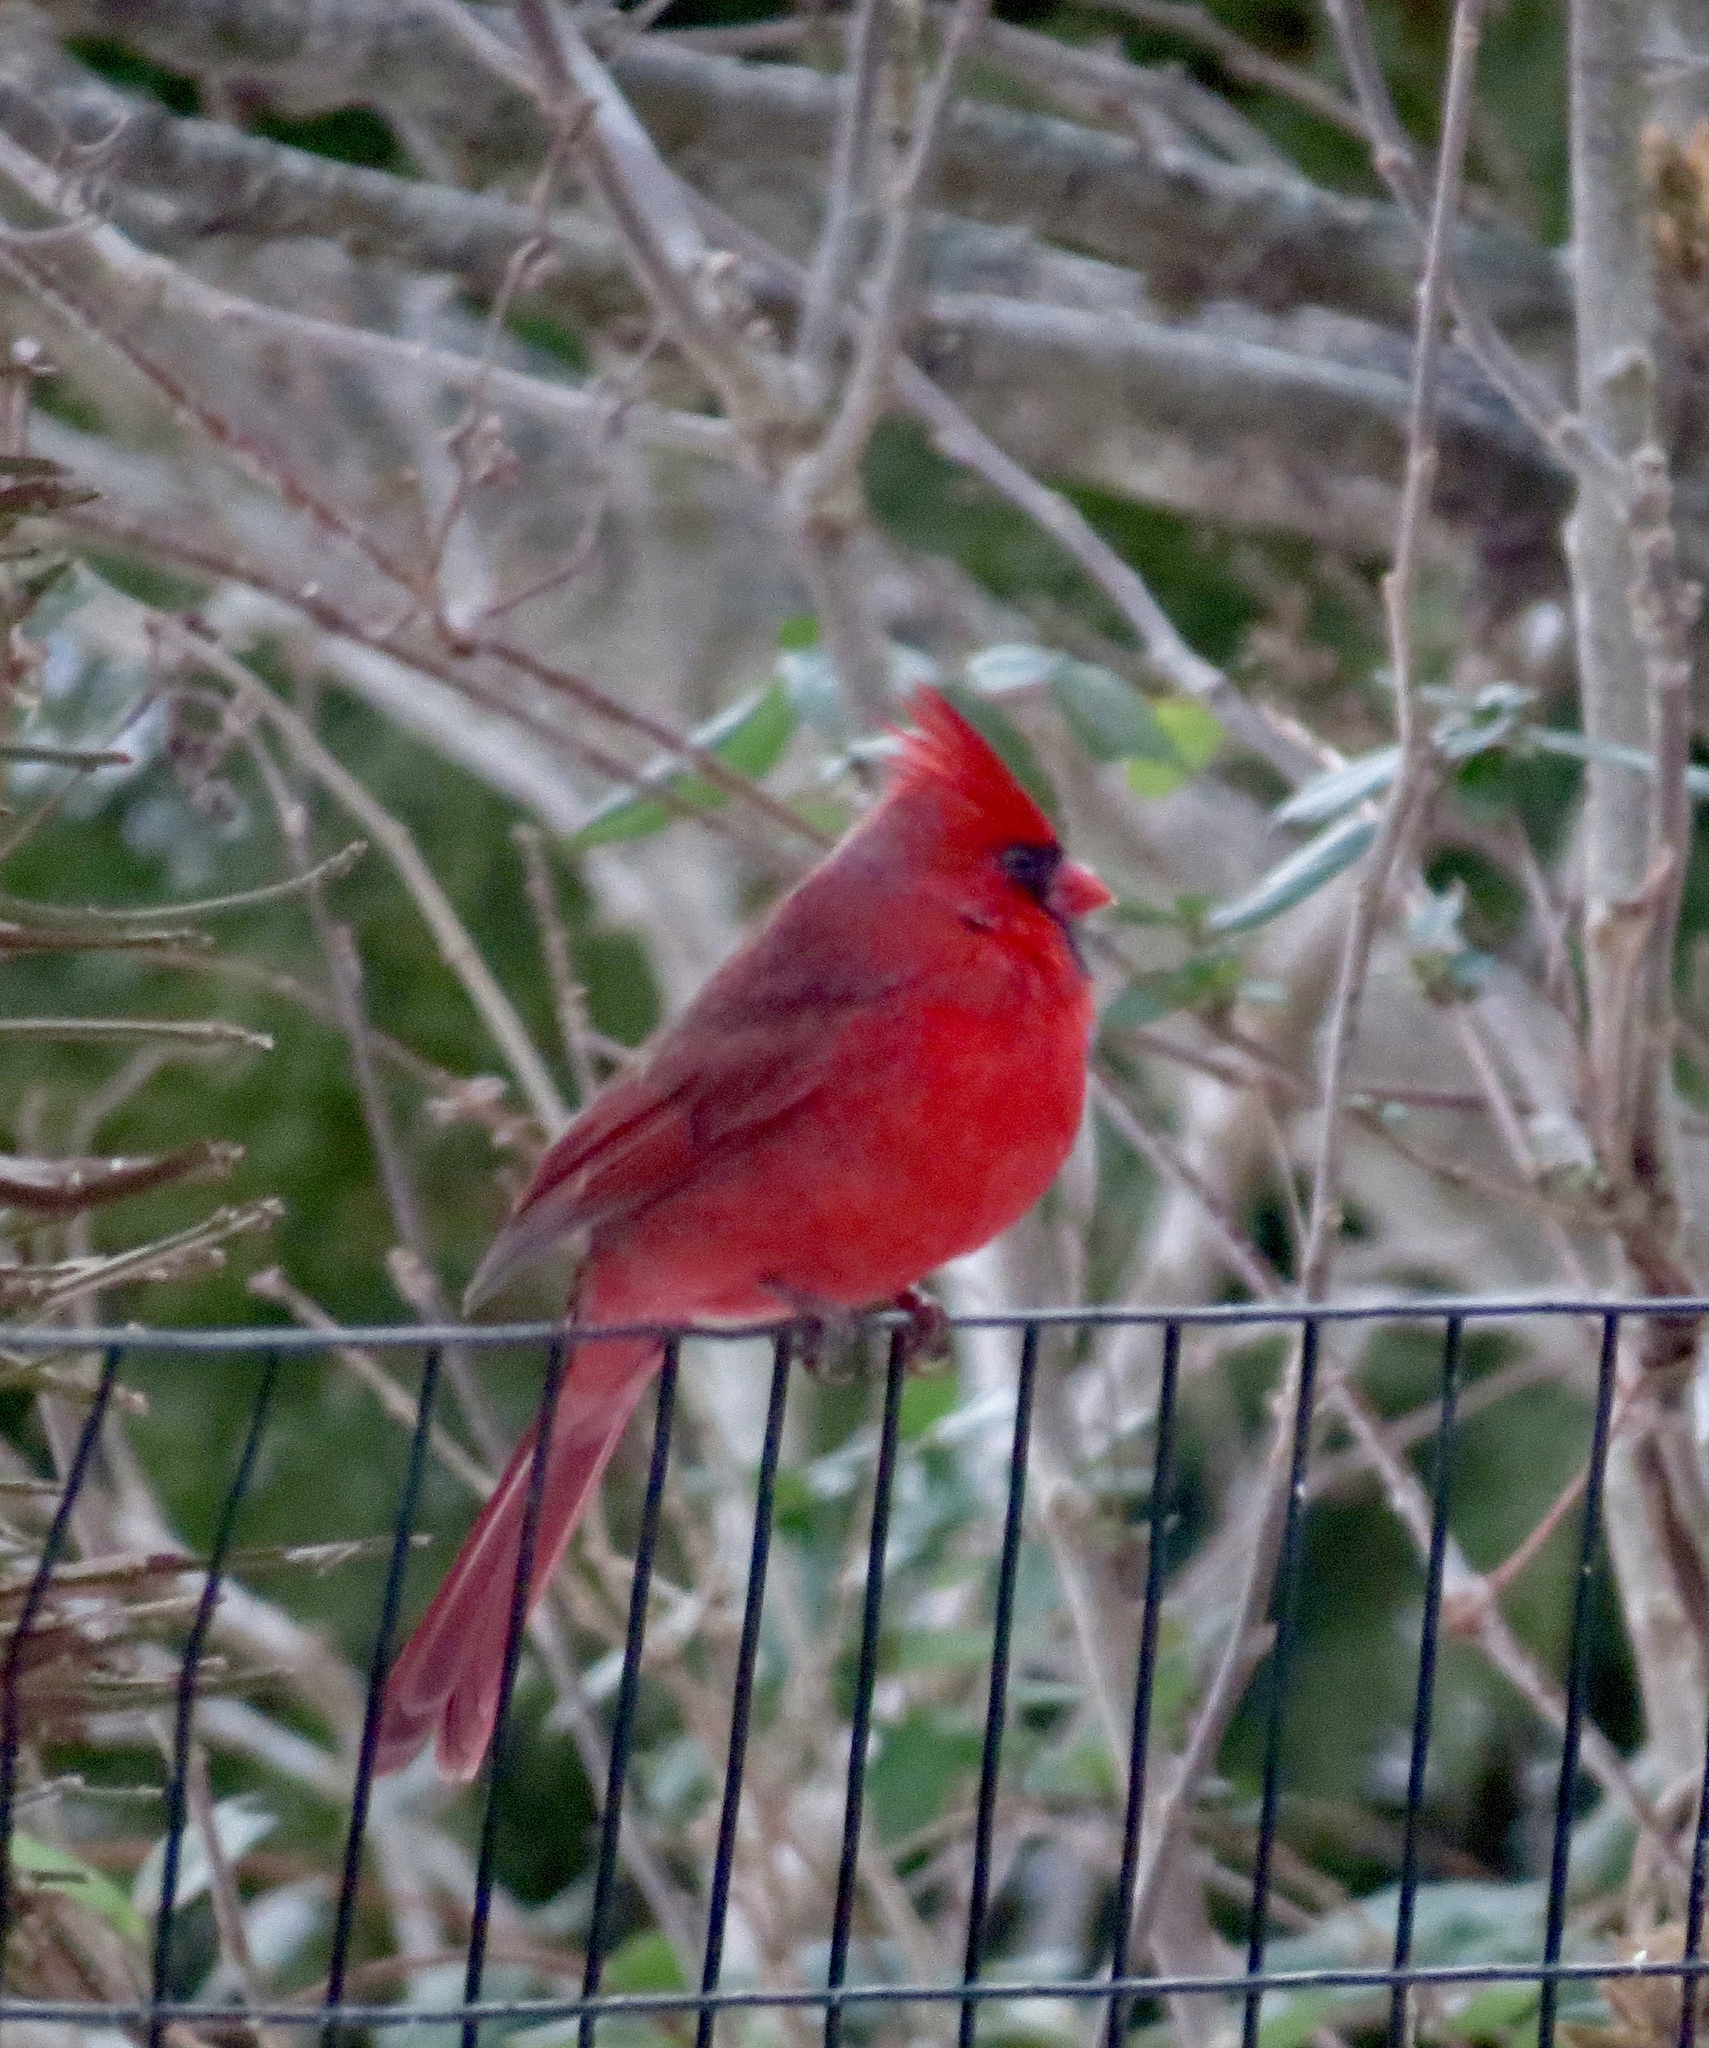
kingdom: Animalia
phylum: Chordata
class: Aves
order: Passeriformes
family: Cardinalidae
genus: Cardinalis
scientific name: Cardinalis cardinalis
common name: Northern cardinal
